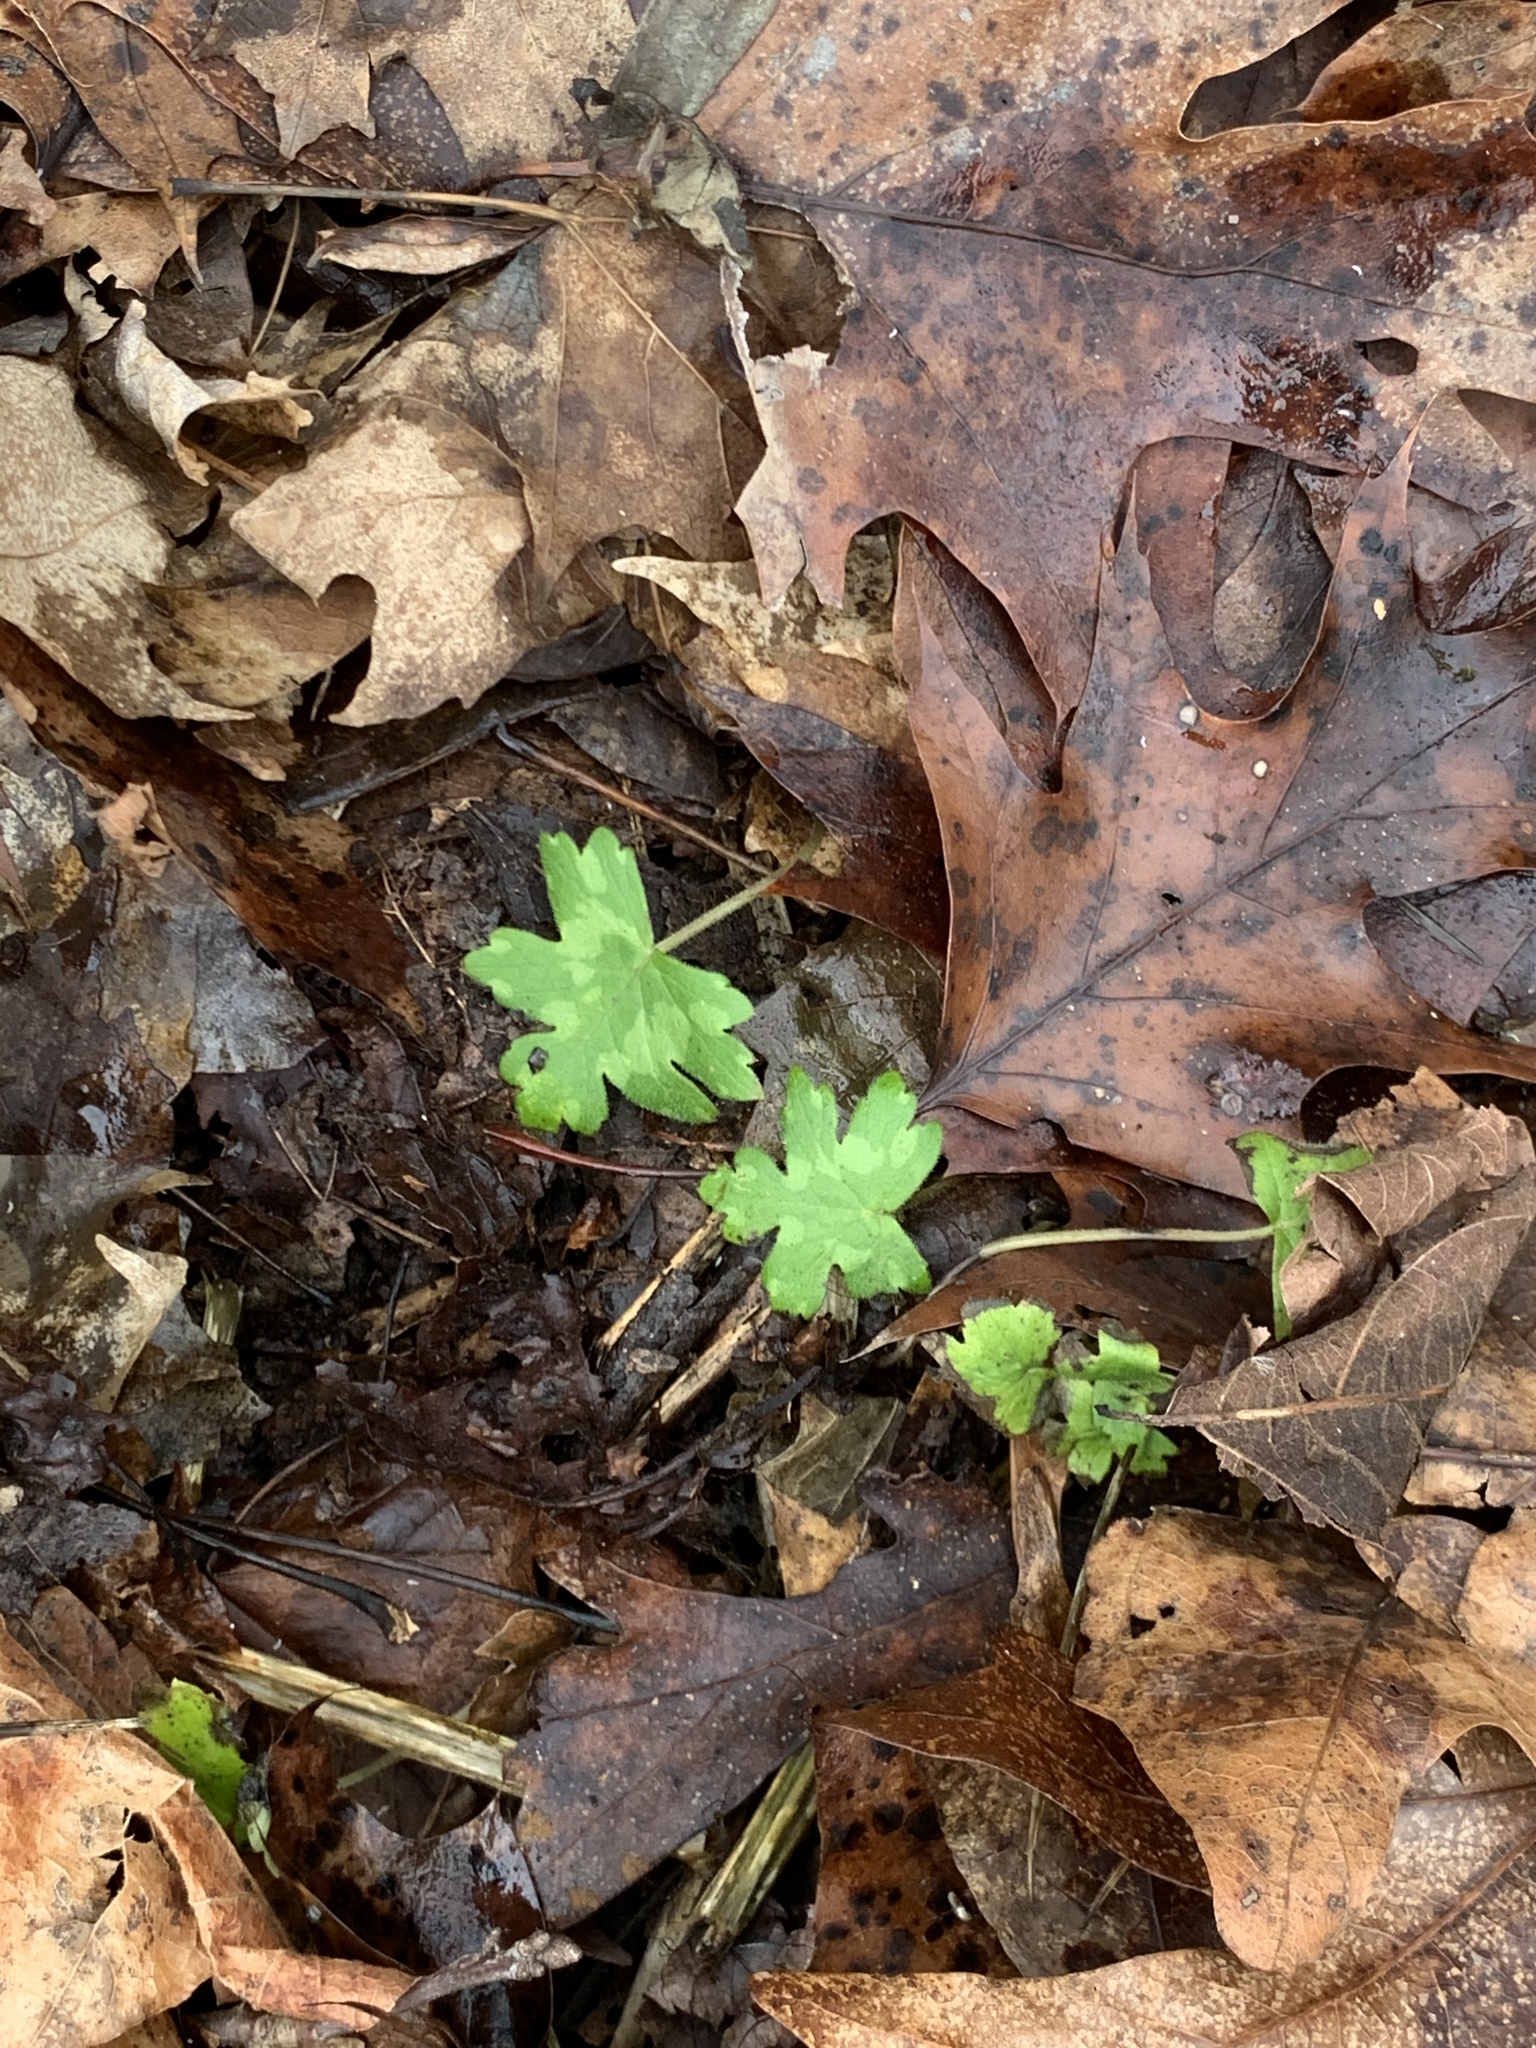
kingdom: Plantae
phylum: Tracheophyta
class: Magnoliopsida
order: Boraginales
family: Hydrophyllaceae
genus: Hydrophyllum
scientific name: Hydrophyllum appendiculatum
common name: Appendaged waterleaf
